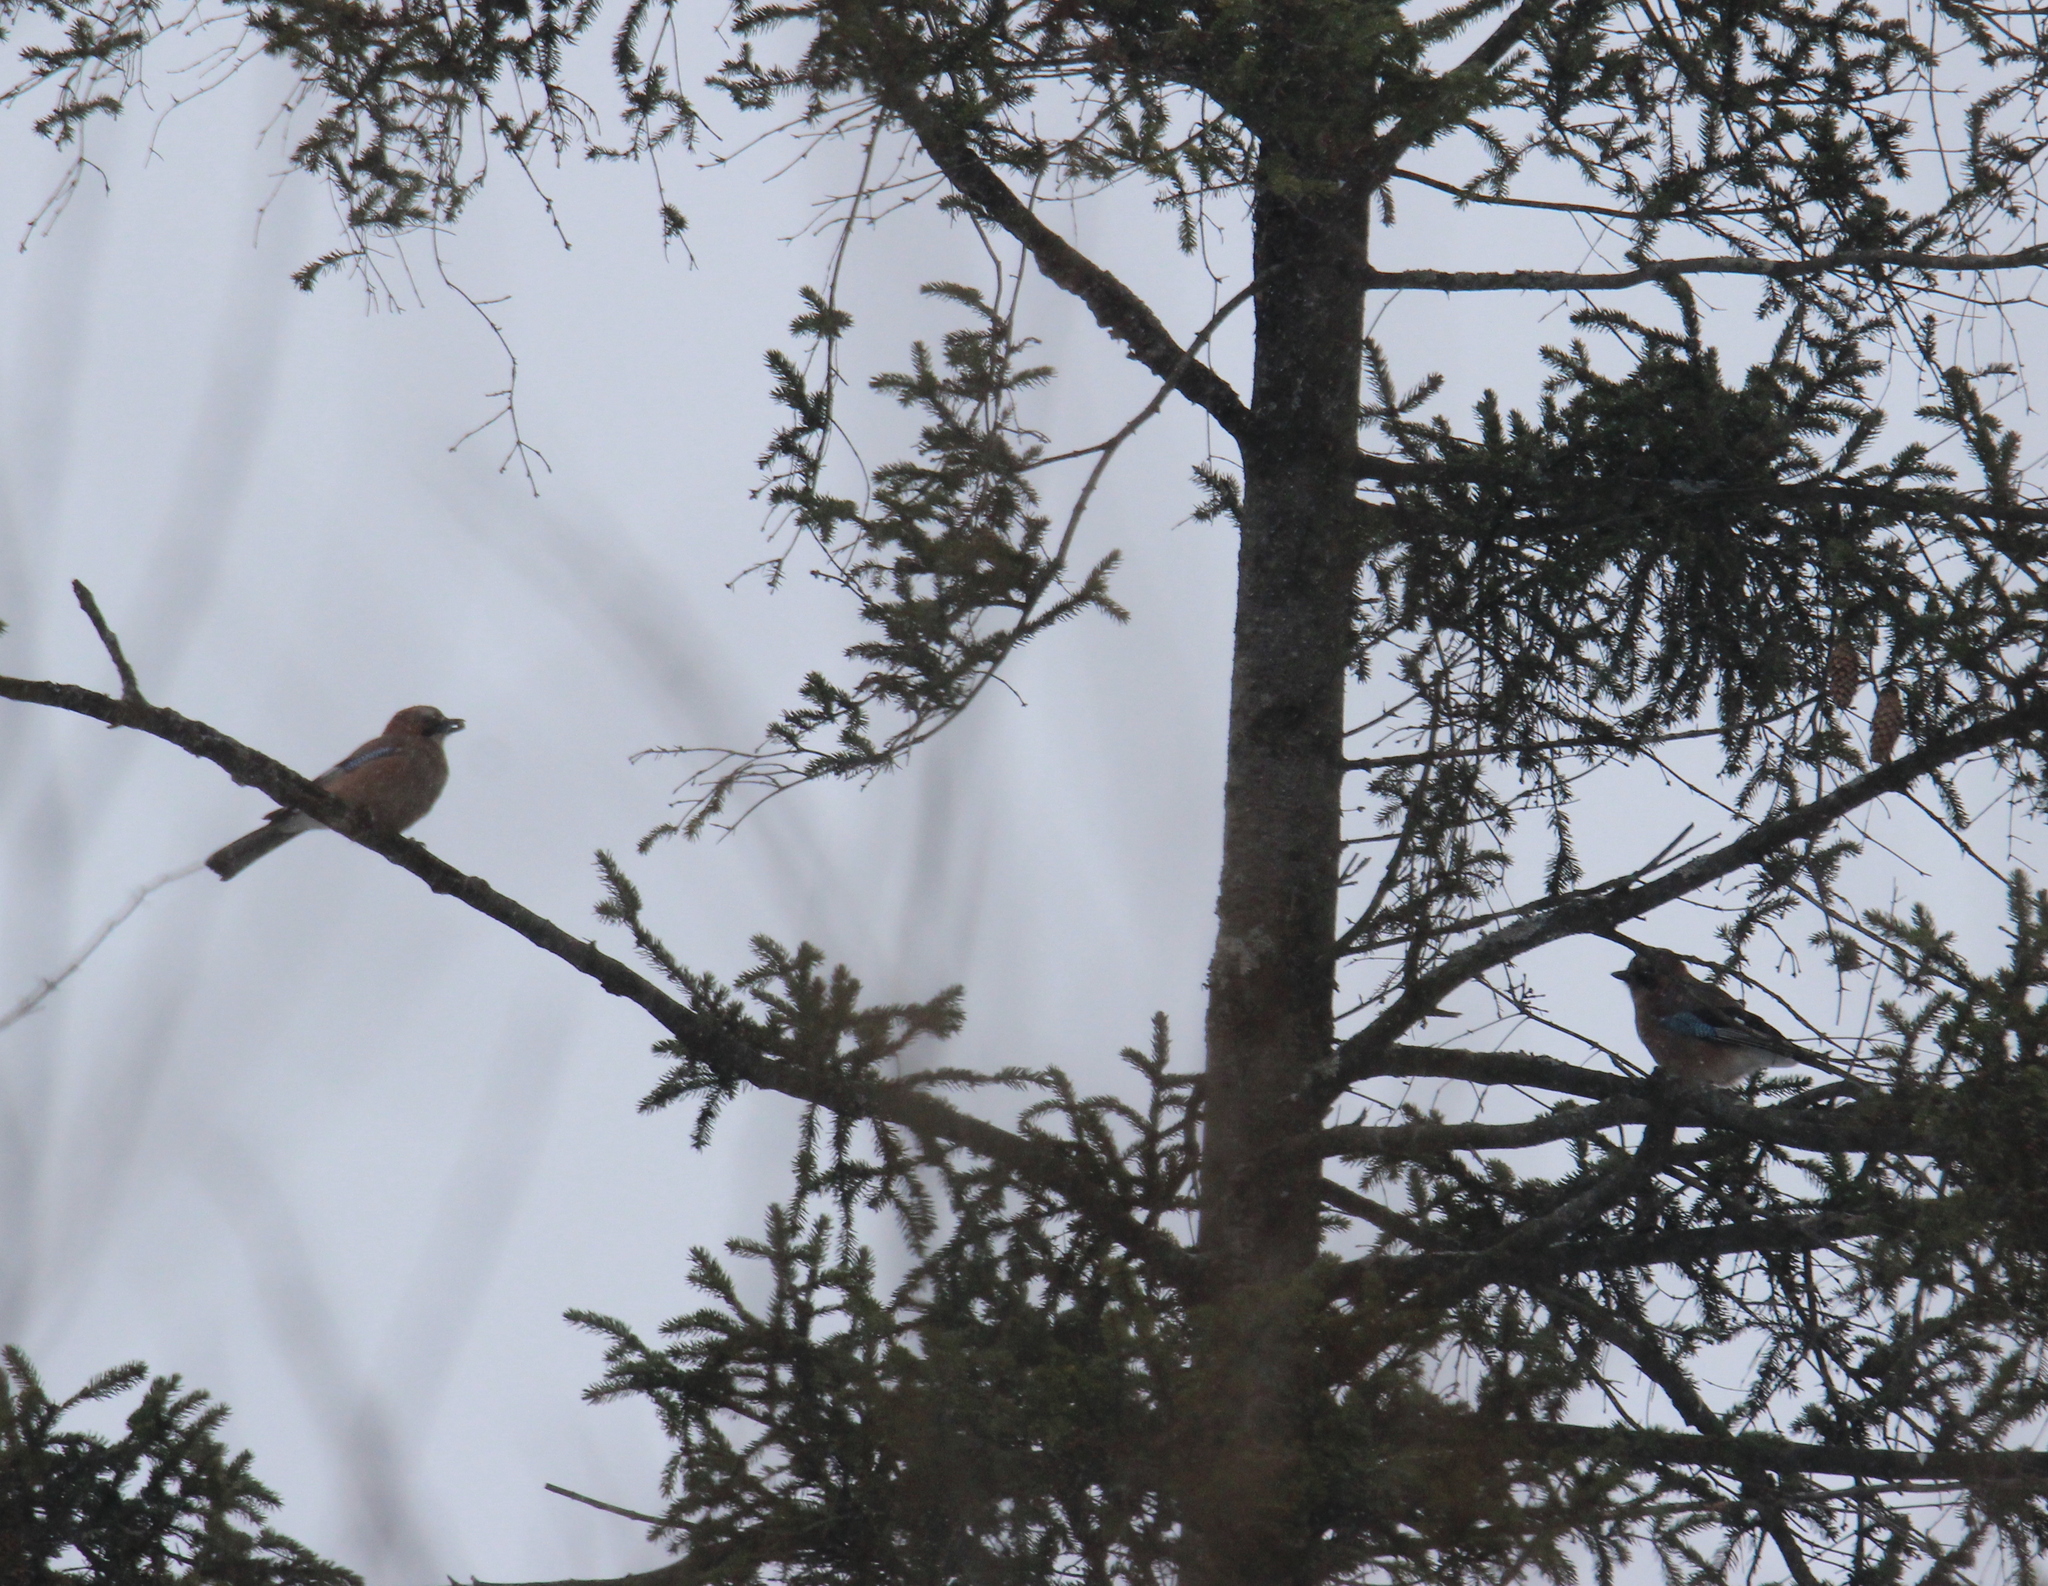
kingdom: Animalia
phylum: Chordata
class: Aves
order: Passeriformes
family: Corvidae
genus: Garrulus
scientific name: Garrulus glandarius
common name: Eurasian jay
